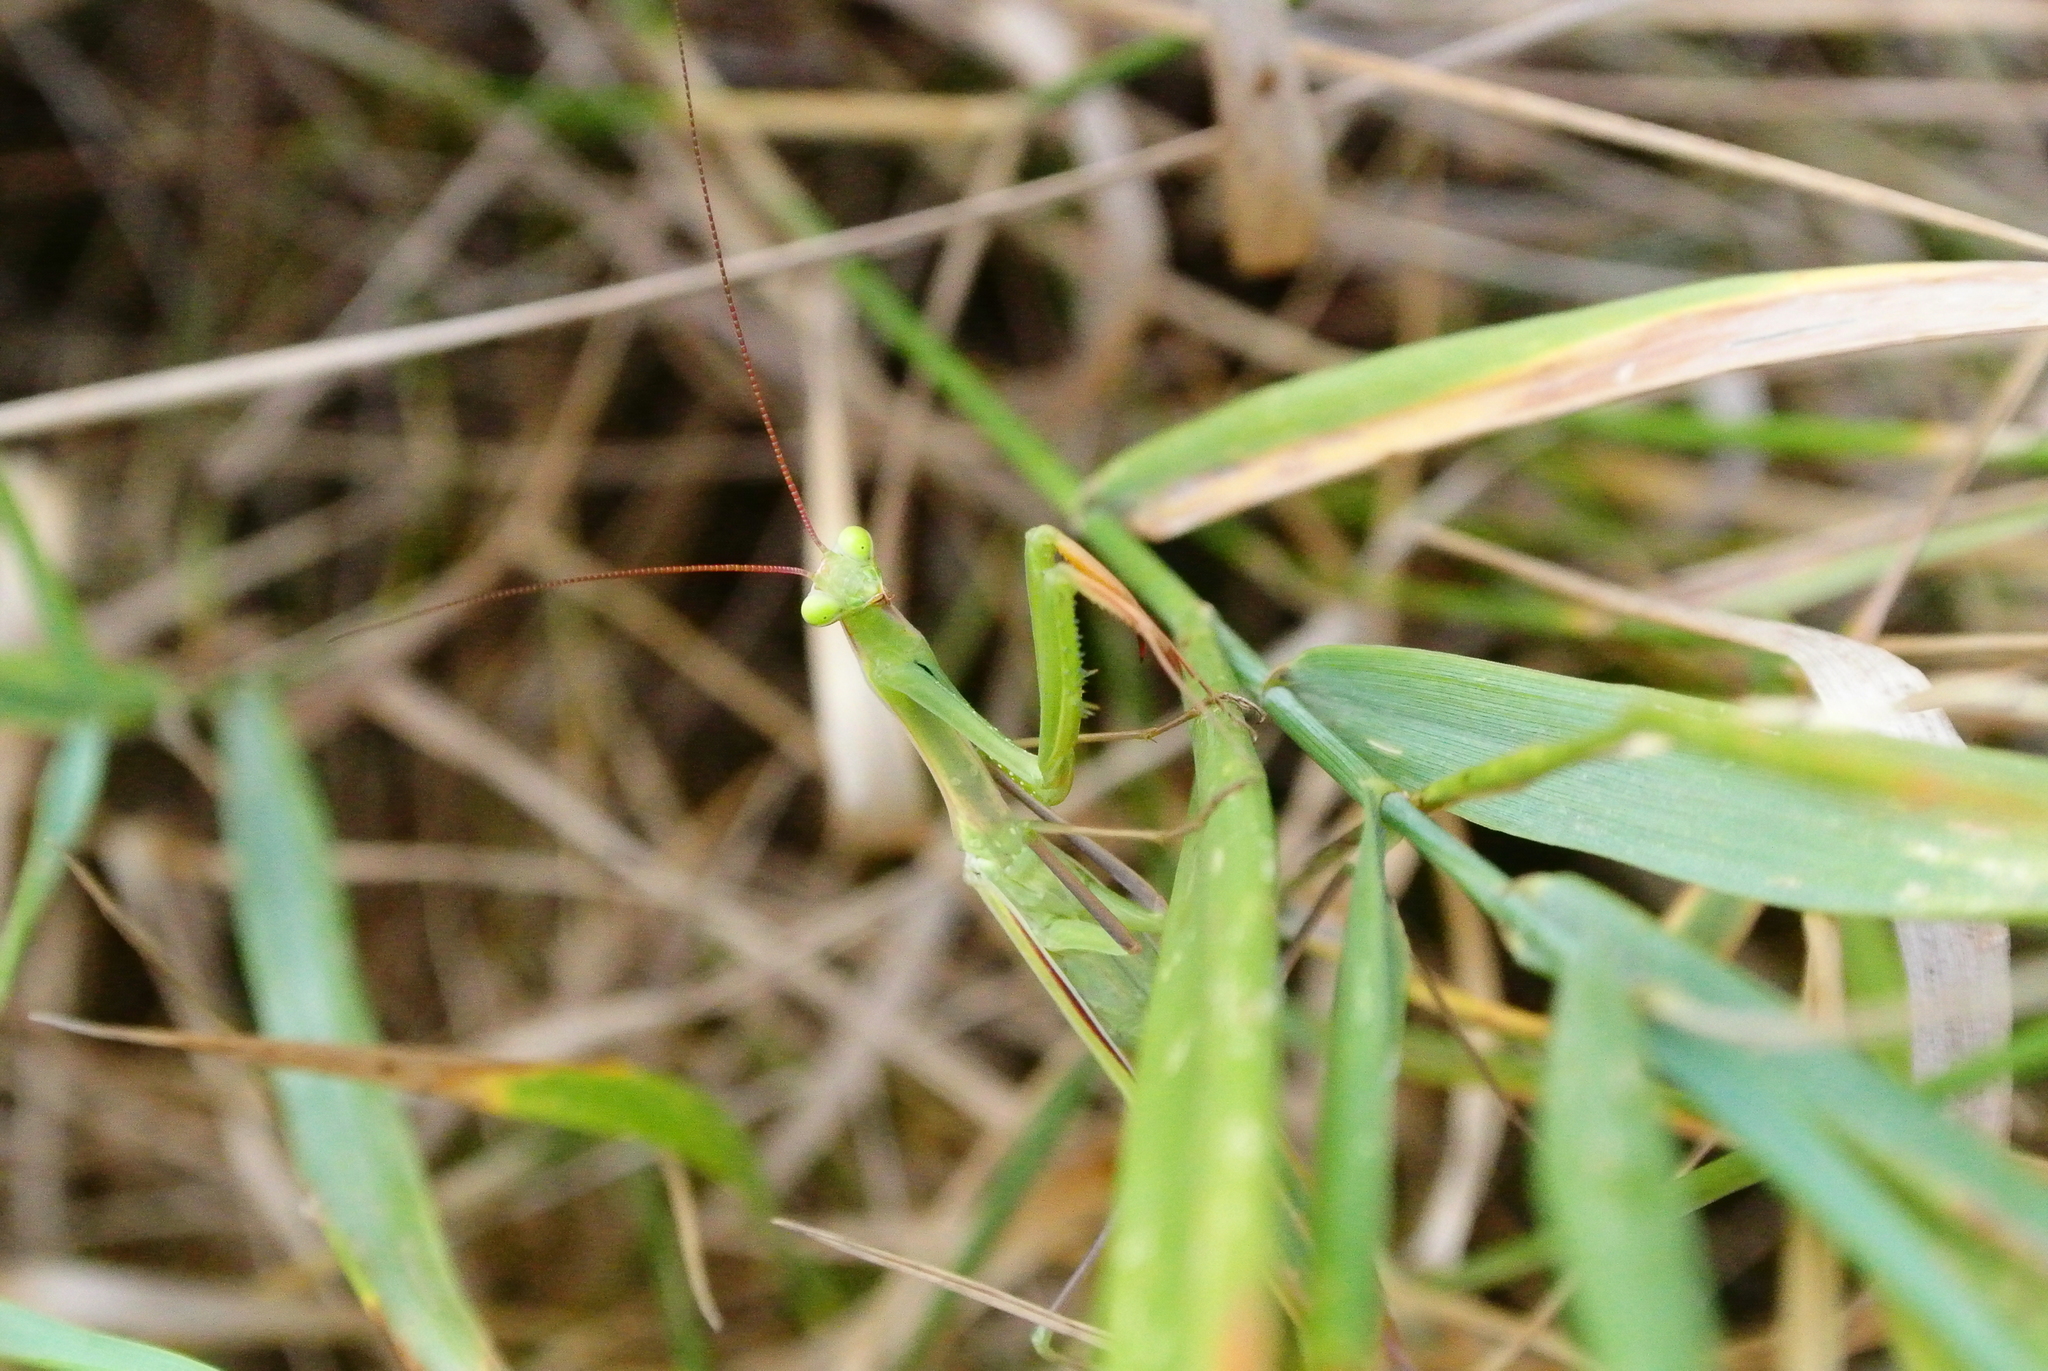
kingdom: Animalia
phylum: Arthropoda
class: Insecta
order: Mantodea
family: Mantidae
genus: Mantis
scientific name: Mantis religiosa
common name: Praying mantis
